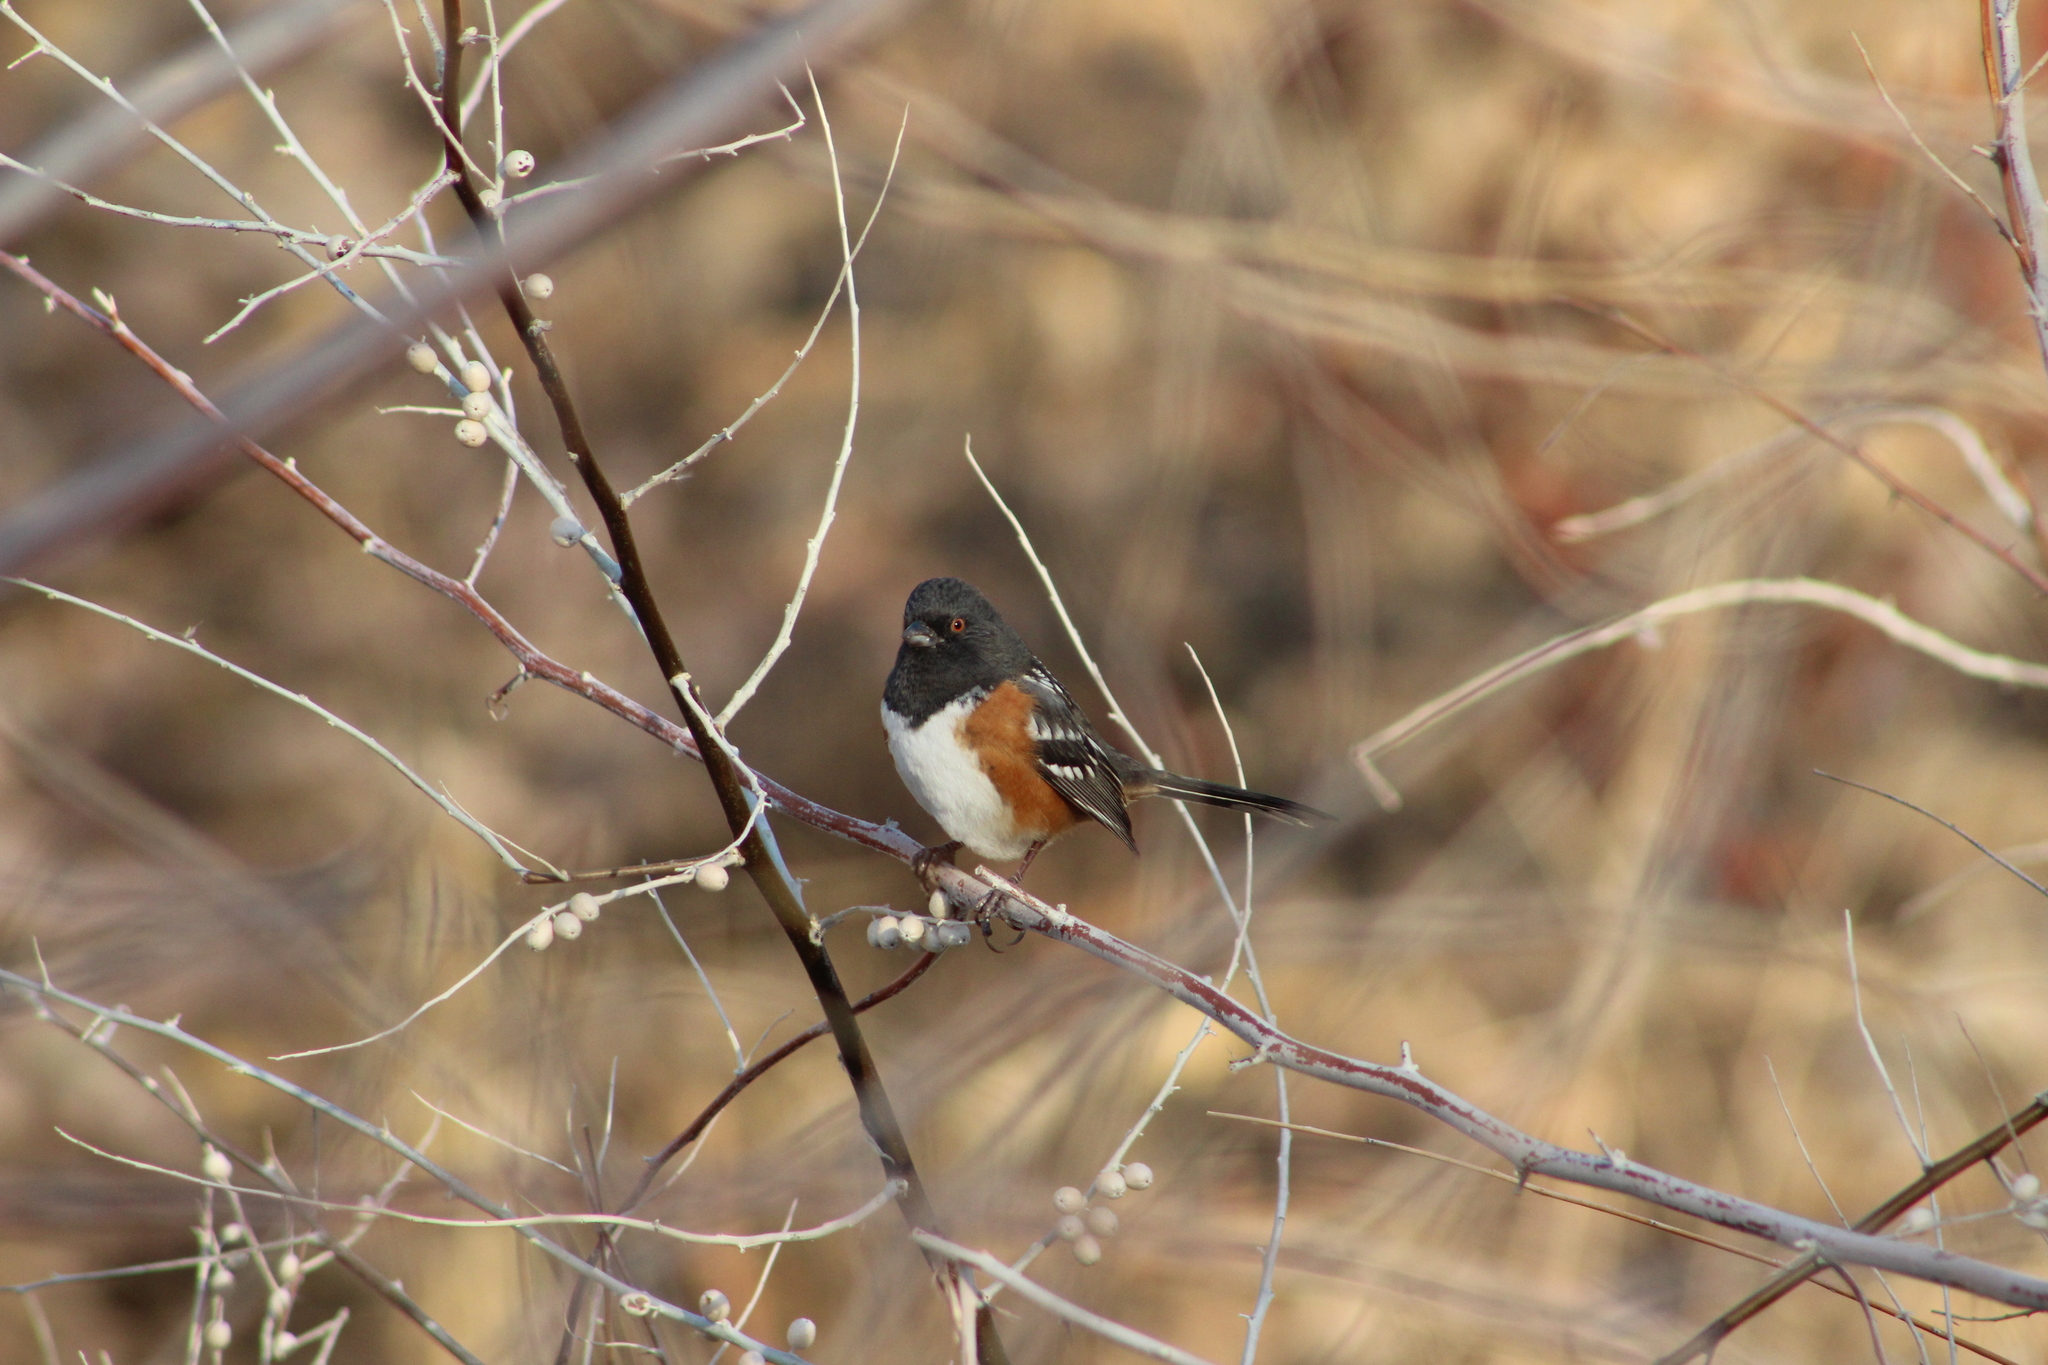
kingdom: Animalia
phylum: Chordata
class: Aves
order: Passeriformes
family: Passerellidae
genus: Pipilo
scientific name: Pipilo maculatus
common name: Spotted towhee
